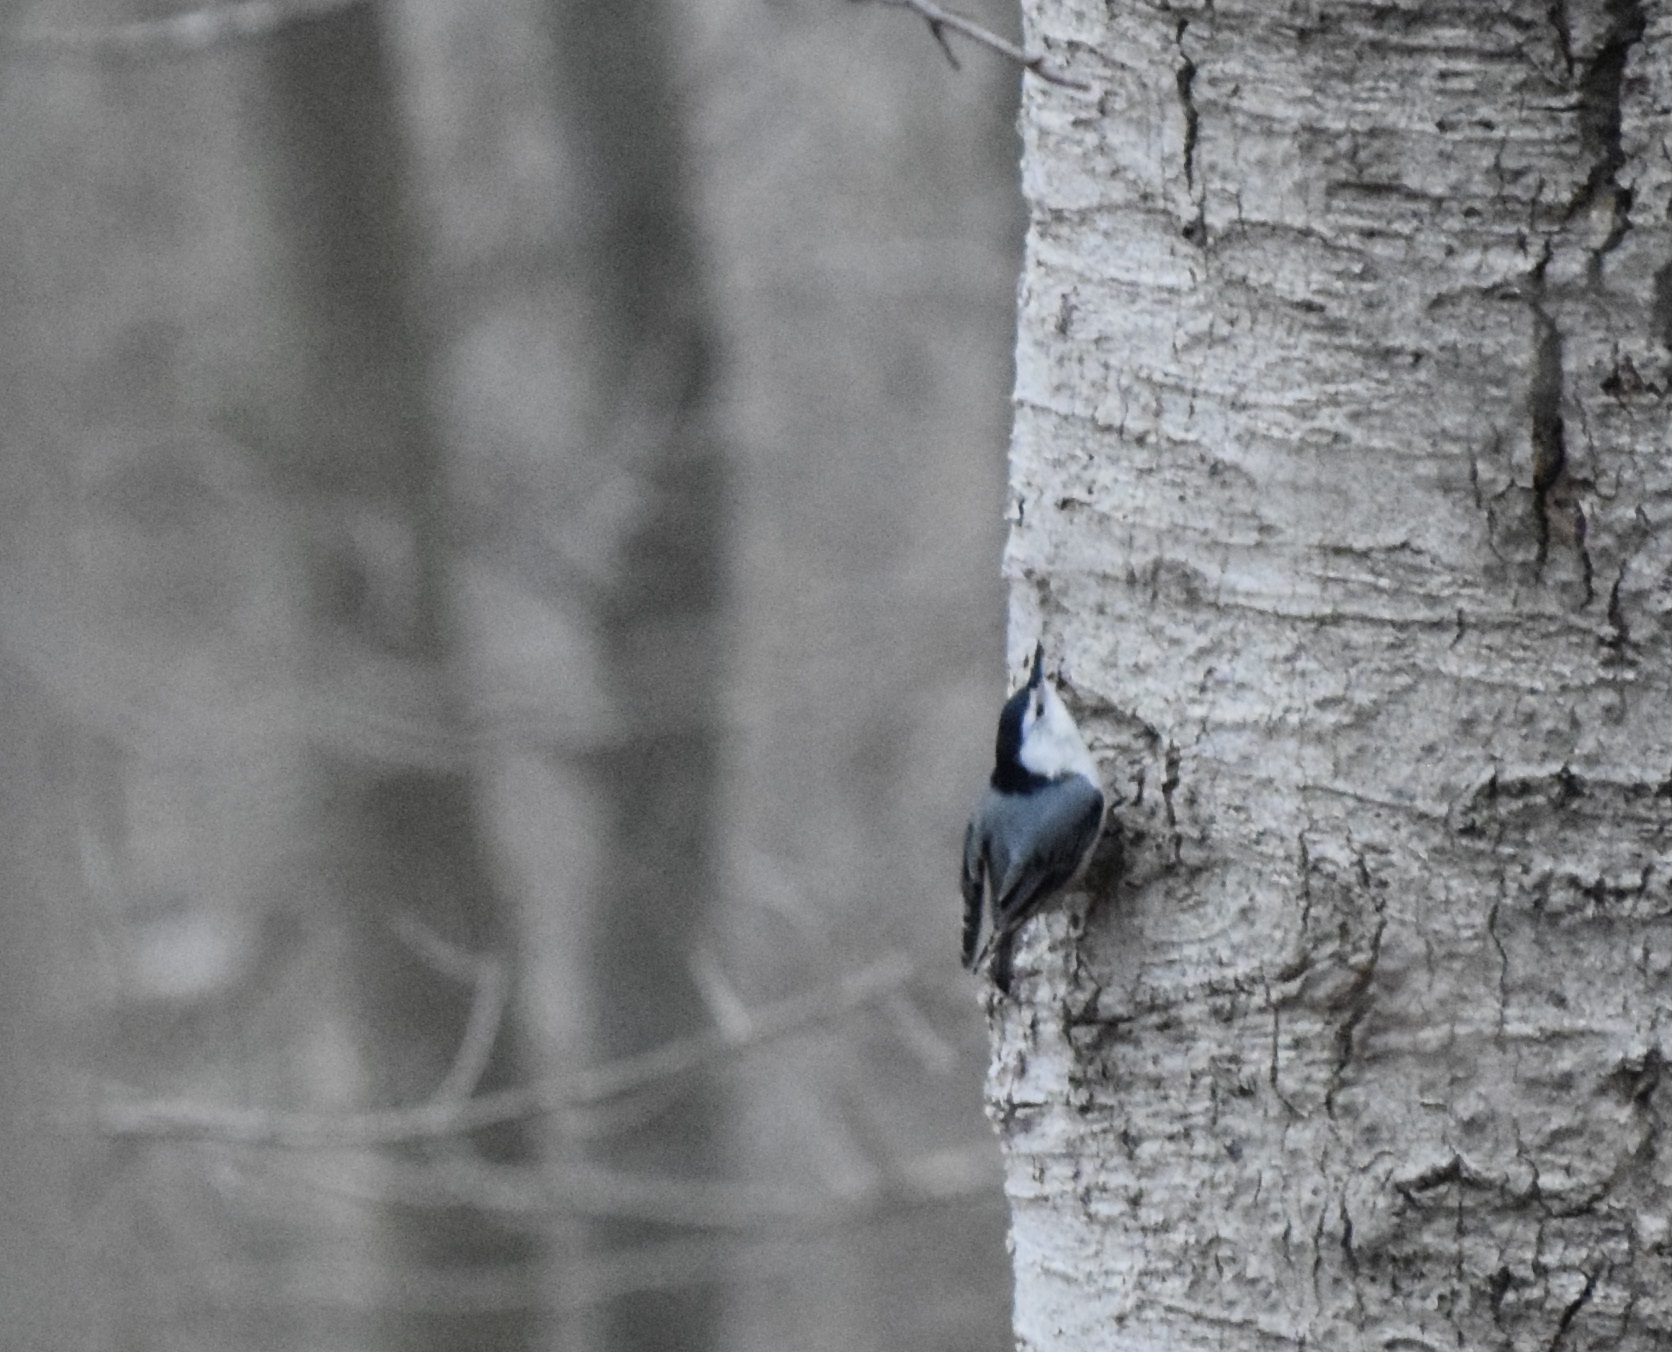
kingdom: Animalia
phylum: Chordata
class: Aves
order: Passeriformes
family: Sittidae
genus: Sitta
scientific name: Sitta carolinensis
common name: White-breasted nuthatch
